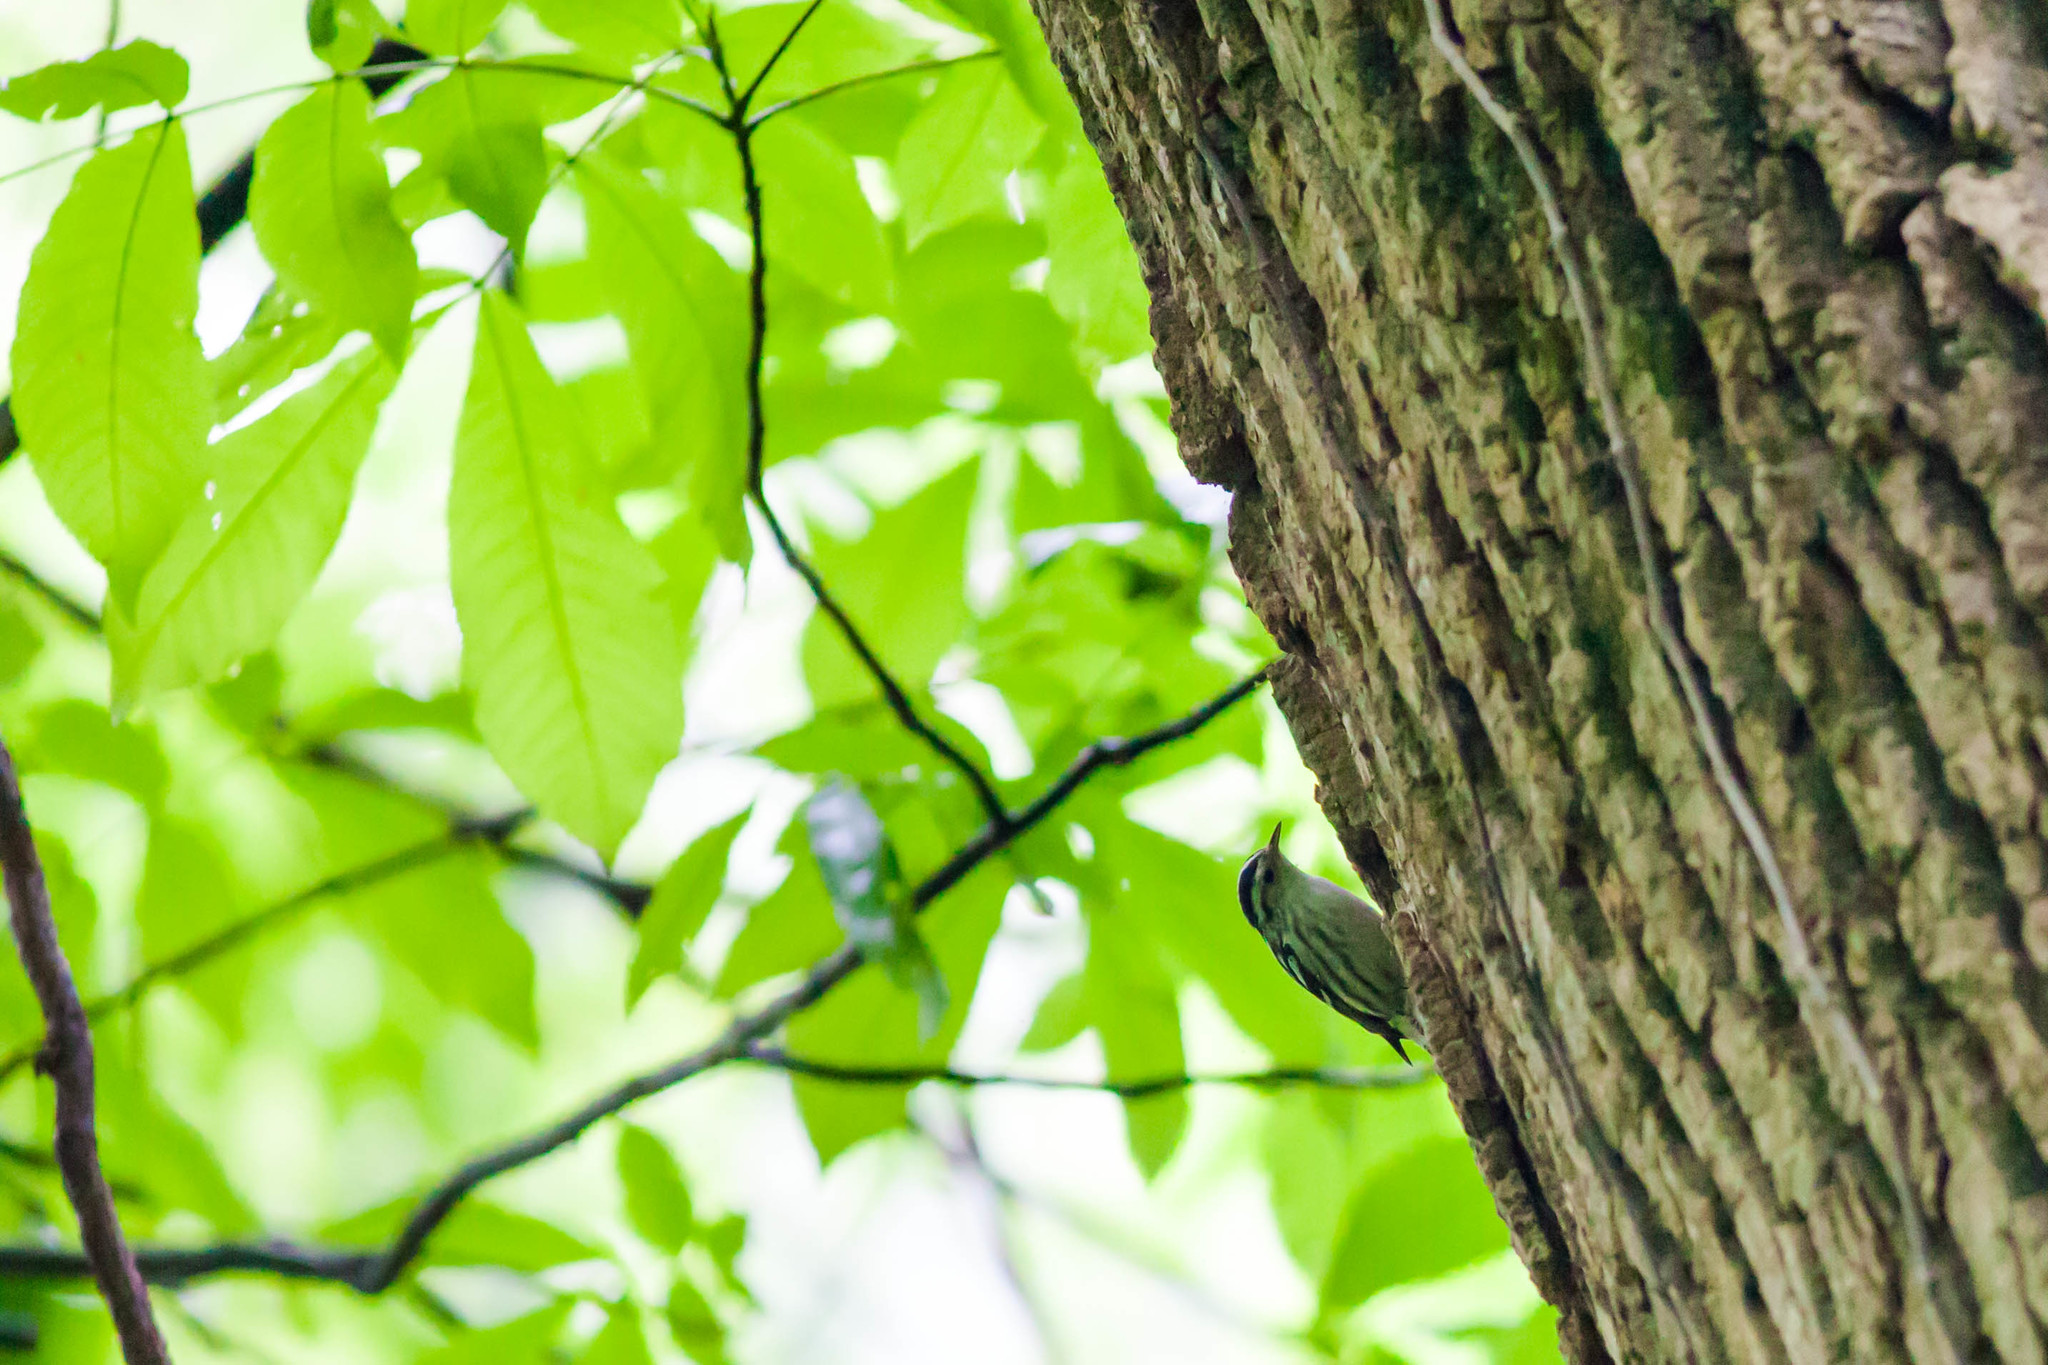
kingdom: Animalia
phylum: Chordata
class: Aves
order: Passeriformes
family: Parulidae
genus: Mniotilta
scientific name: Mniotilta varia
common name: Black-and-white warbler
